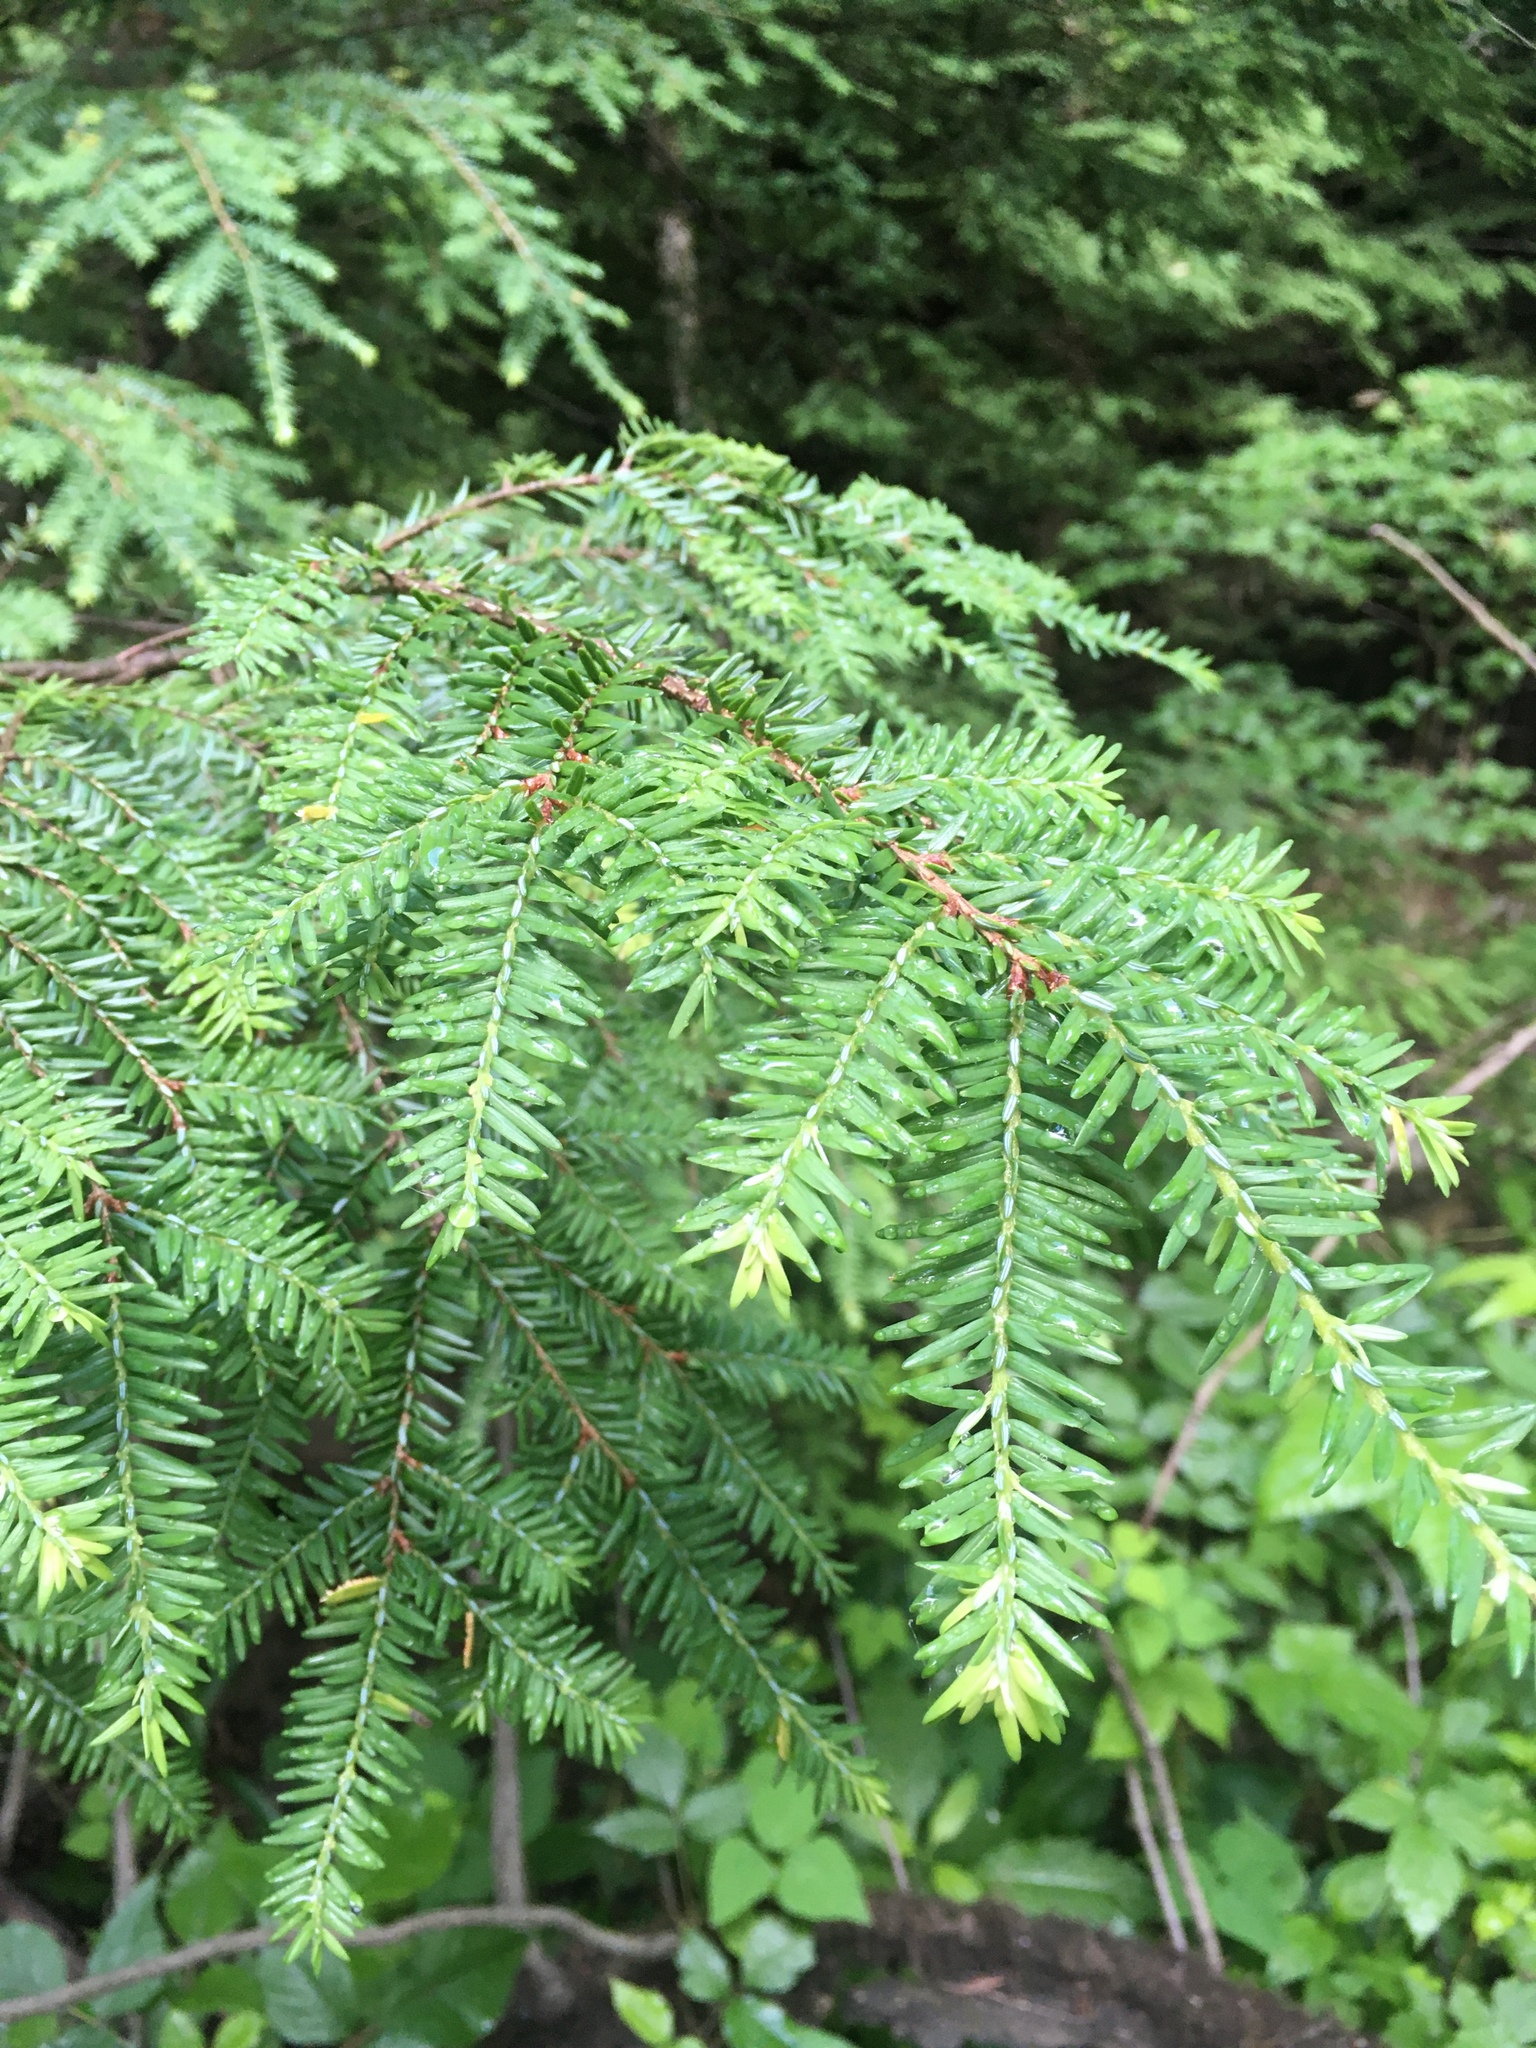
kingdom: Plantae
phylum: Tracheophyta
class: Pinopsida
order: Pinales
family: Pinaceae
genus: Tsuga
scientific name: Tsuga canadensis
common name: Eastern hemlock
